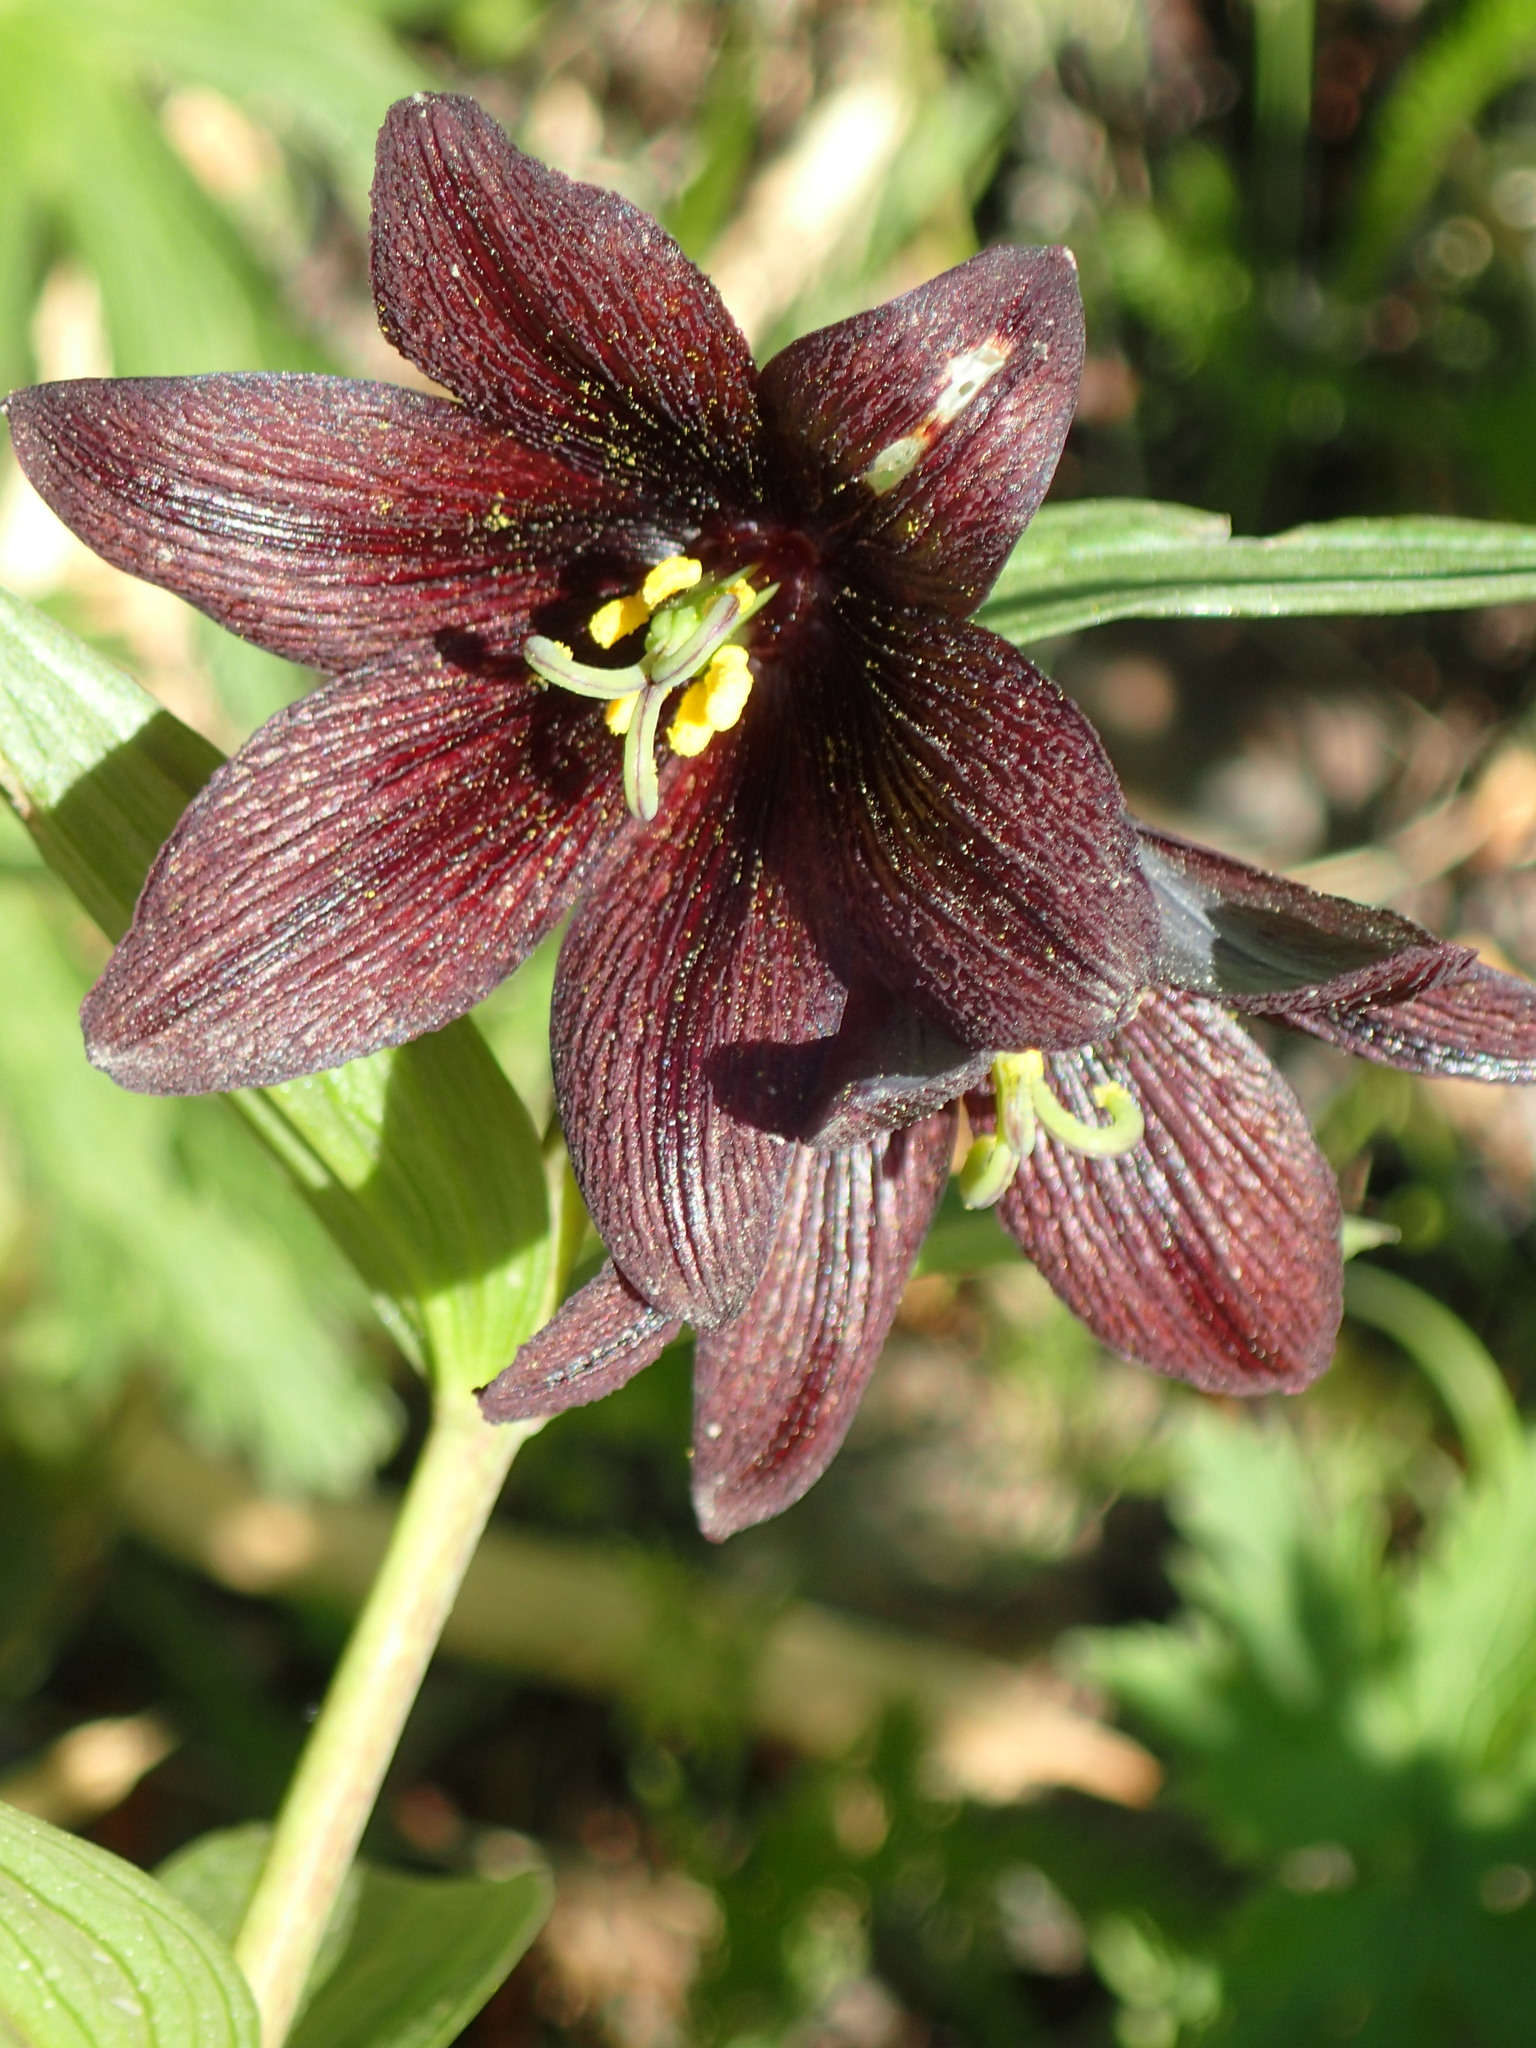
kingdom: Plantae
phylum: Tracheophyta
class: Liliopsida
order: Liliales
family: Liliaceae
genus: Fritillaria
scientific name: Fritillaria camschatcensis
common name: Kamchatka fritillary
